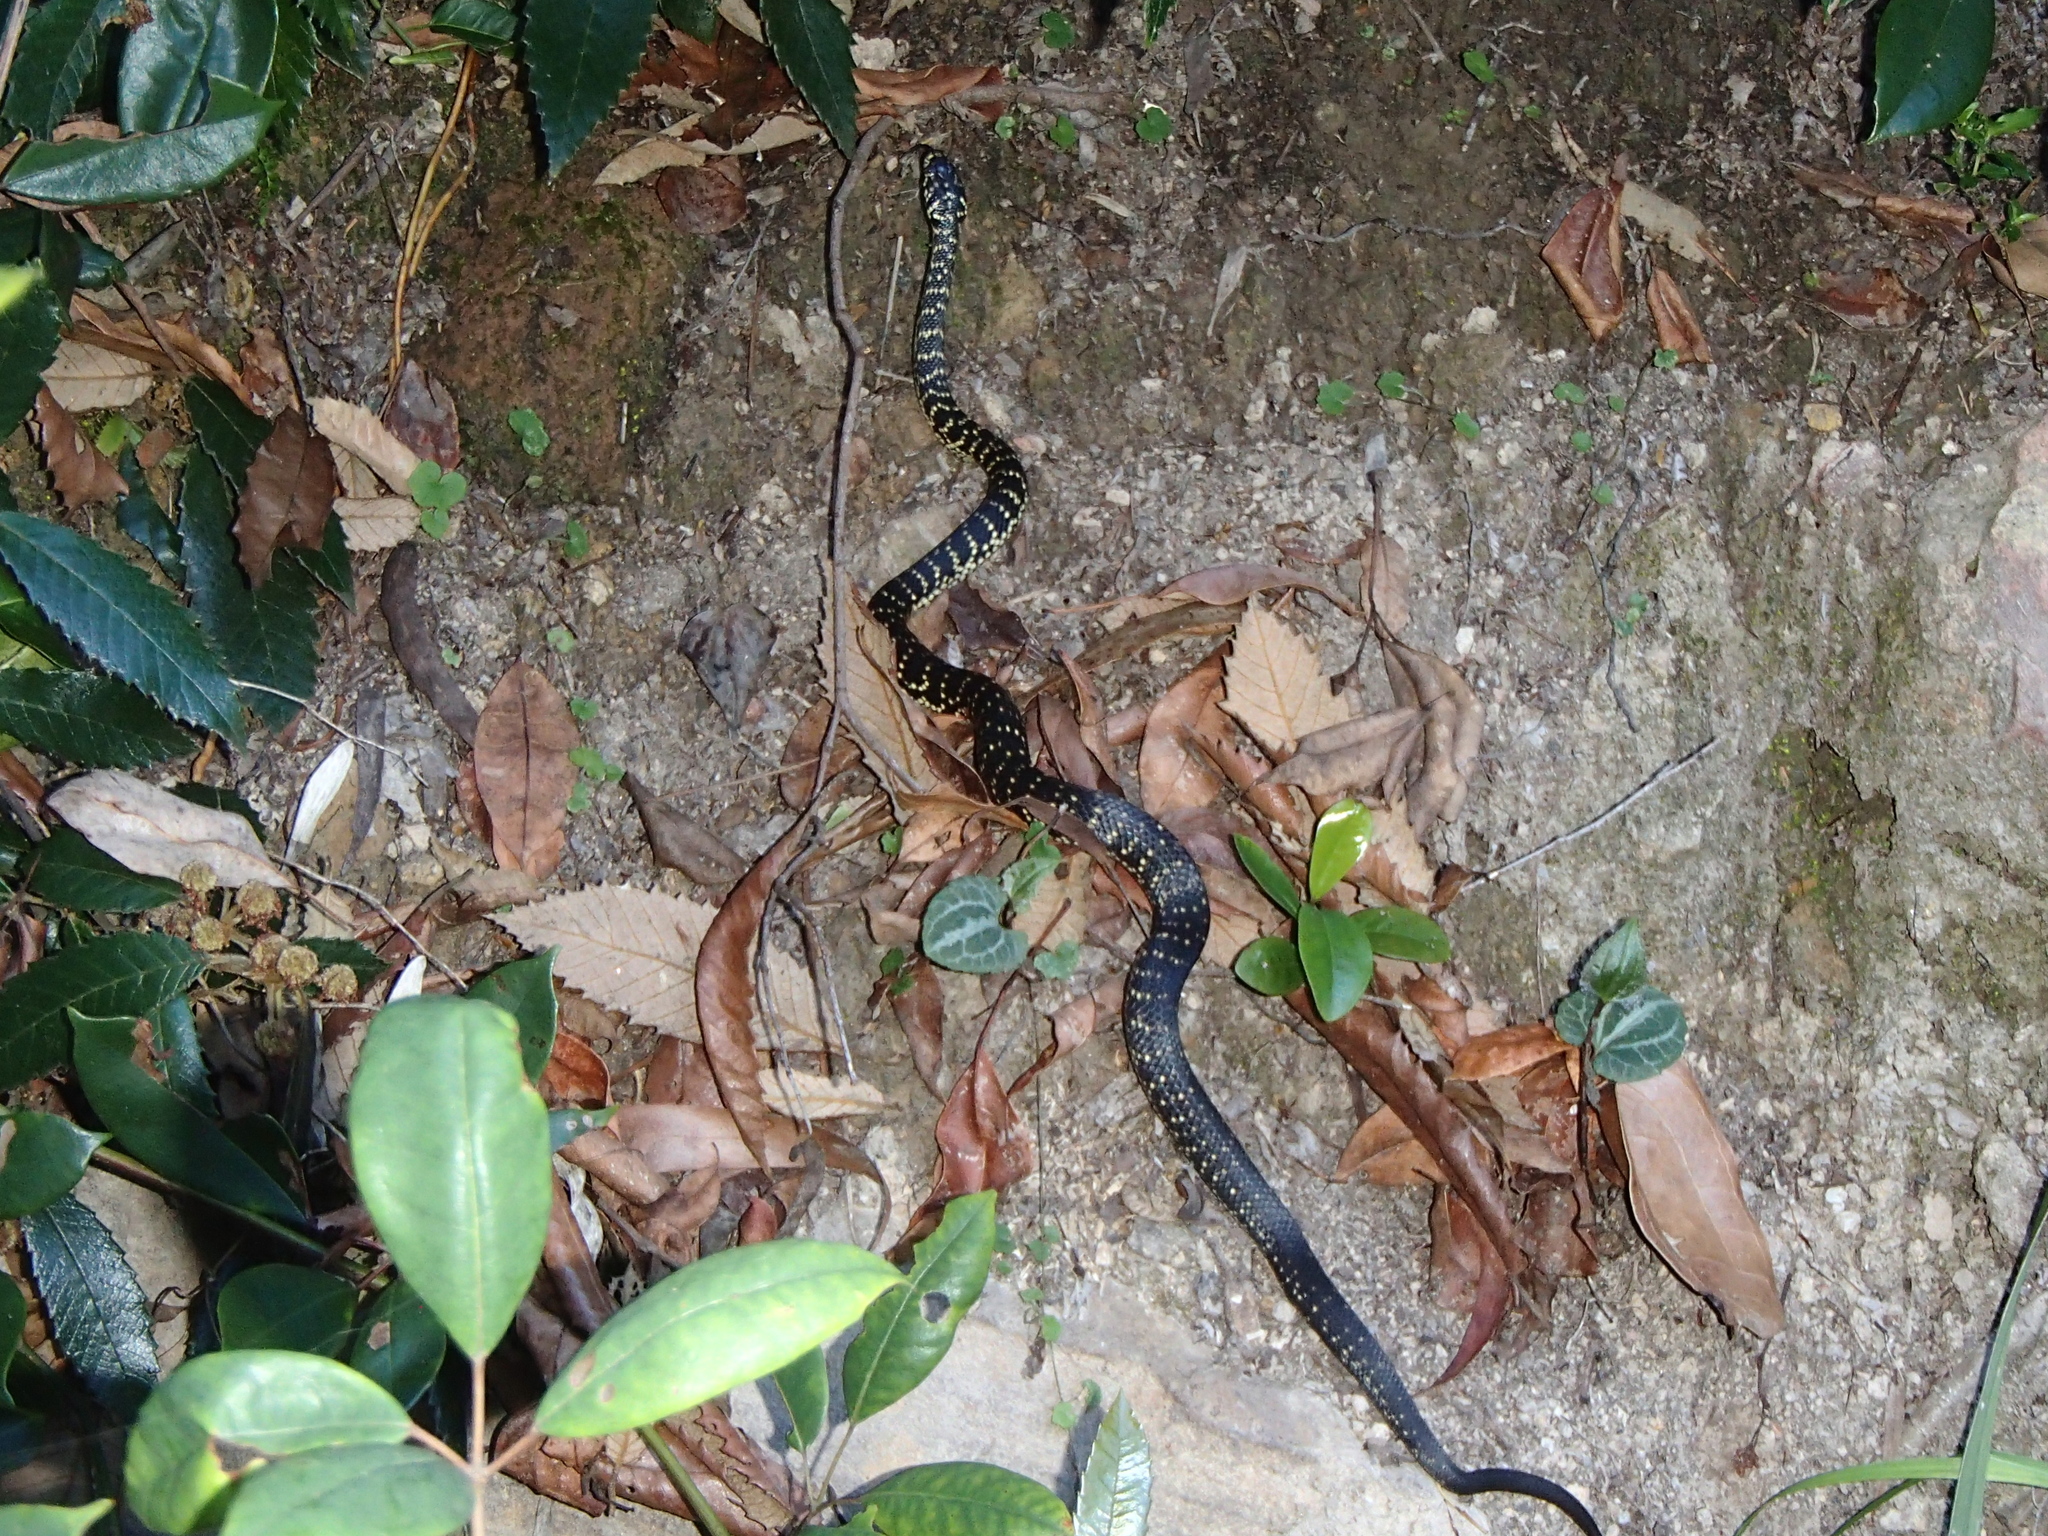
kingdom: Animalia
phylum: Chordata
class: Squamata
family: Elapidae
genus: Hoplocephalus
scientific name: Hoplocephalus bungaroides
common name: Broad-headed snake
